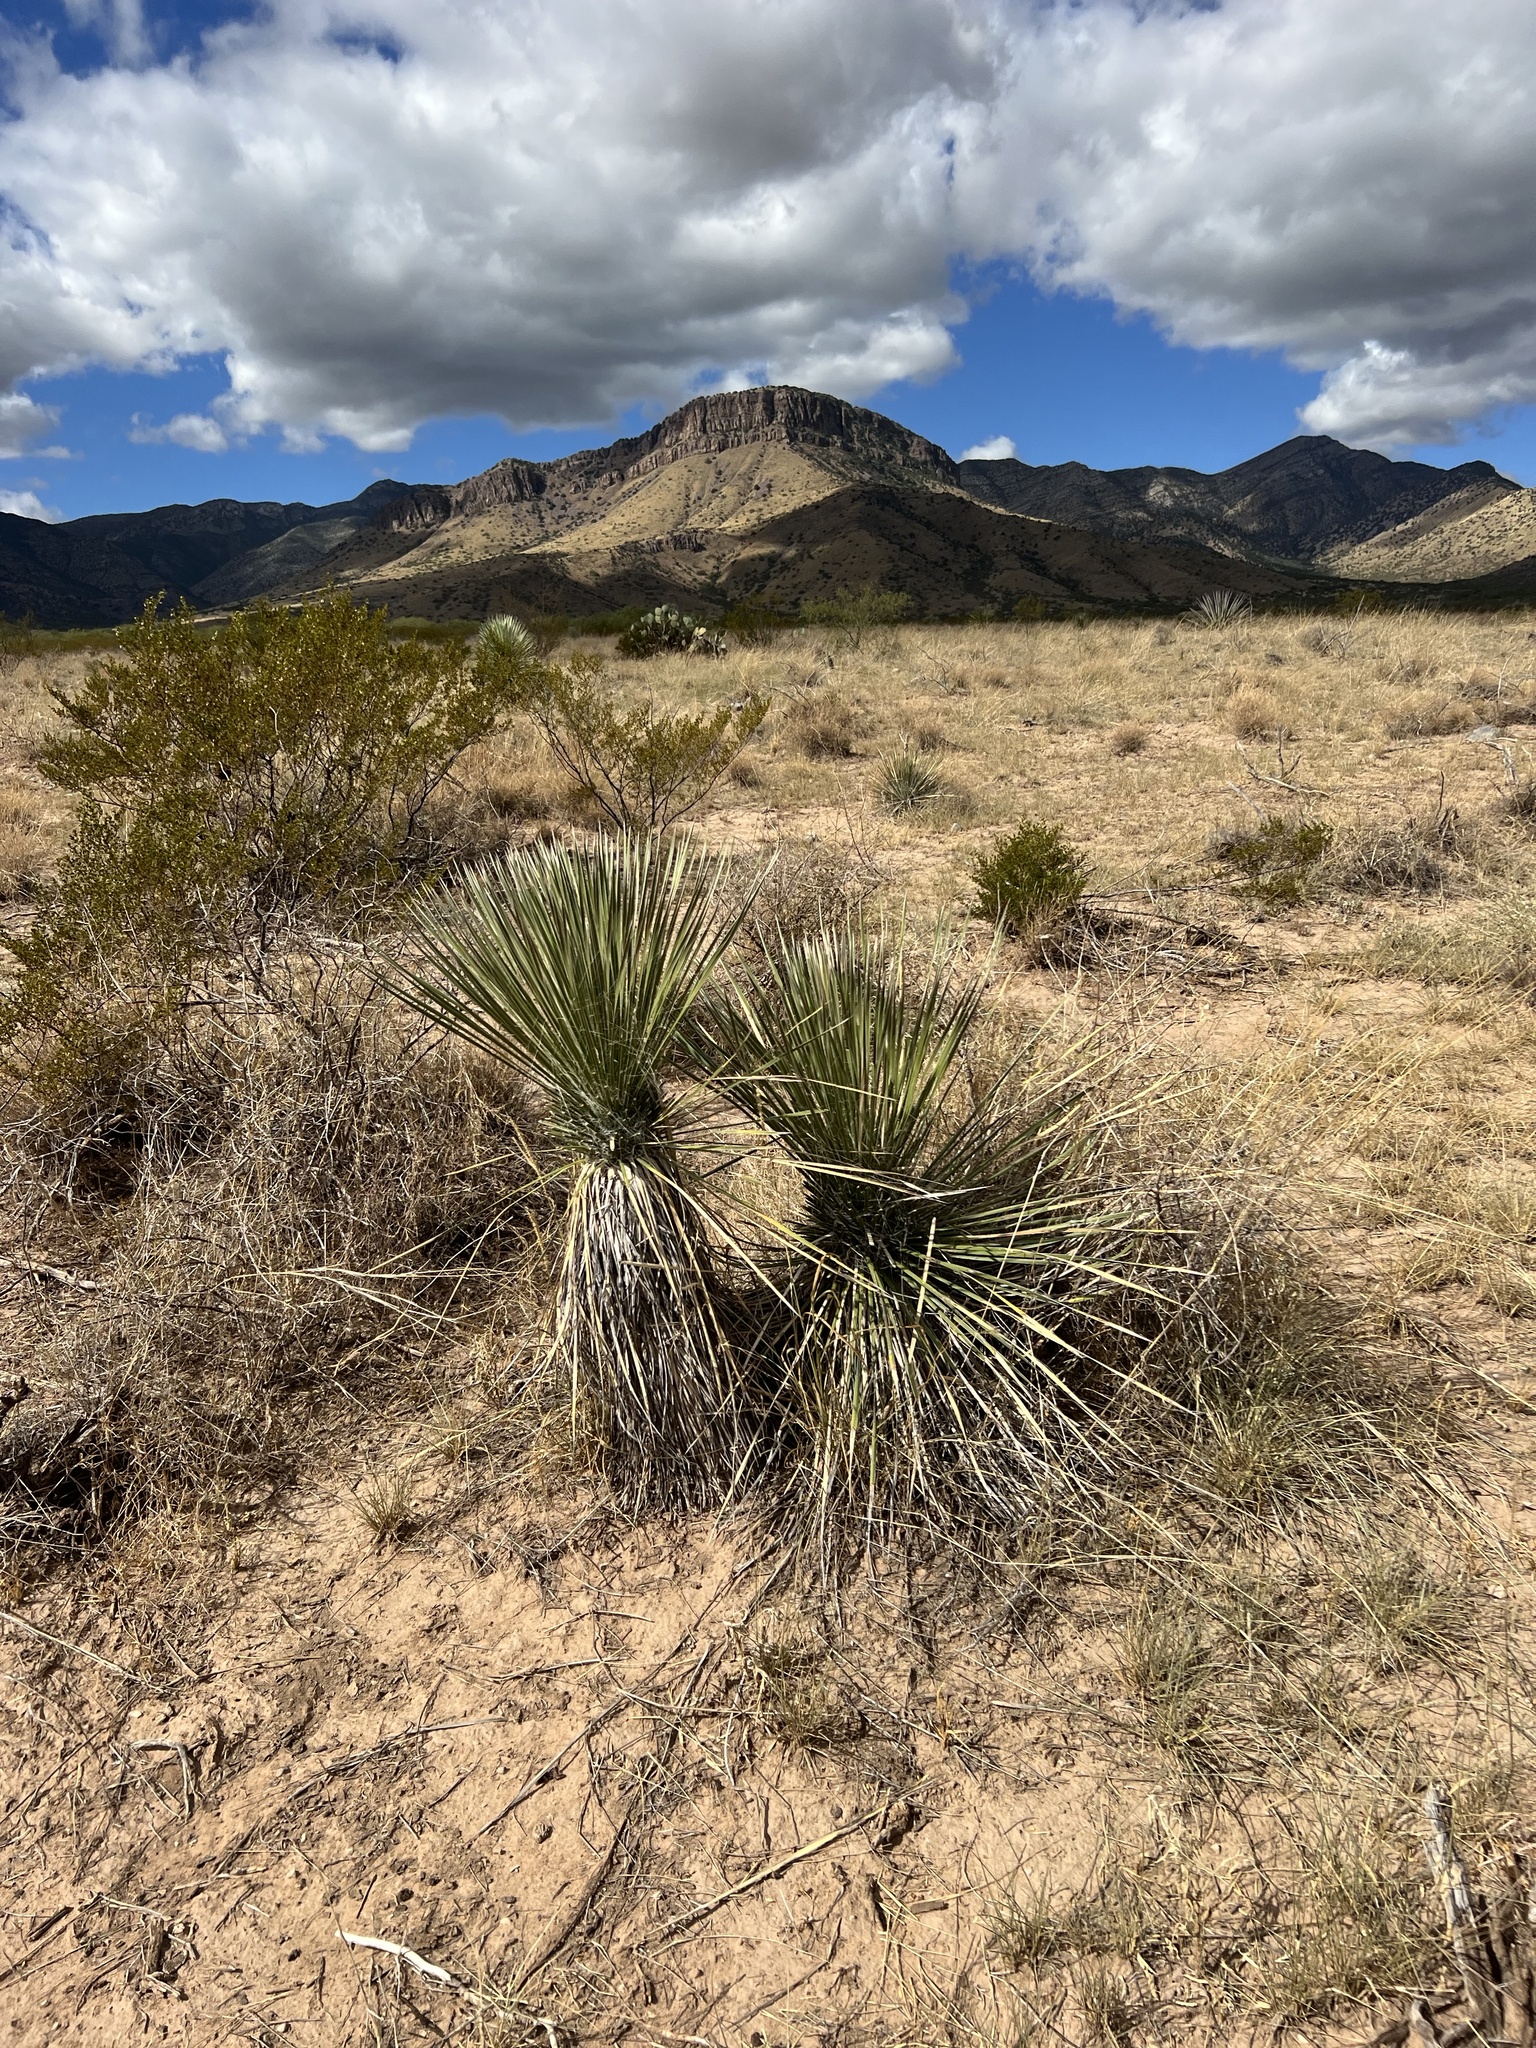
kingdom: Plantae
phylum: Tracheophyta
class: Liliopsida
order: Asparagales
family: Asparagaceae
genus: Yucca
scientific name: Yucca elata
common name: Palmella
